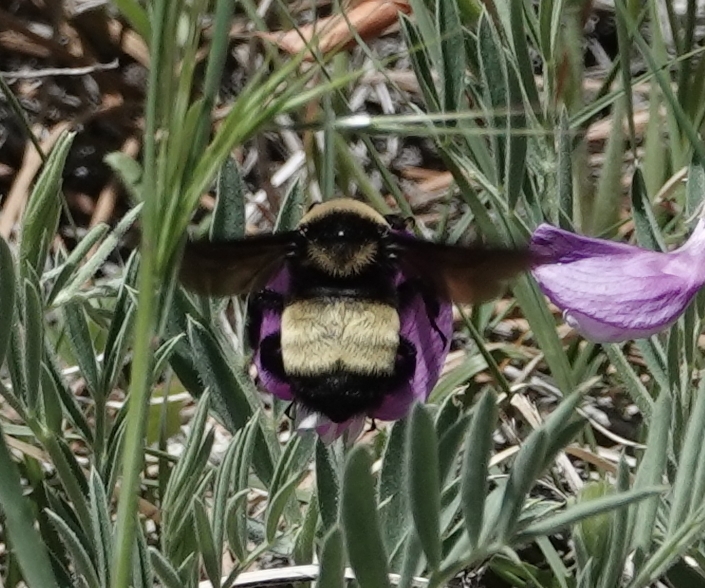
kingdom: Animalia
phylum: Arthropoda
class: Insecta
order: Hymenoptera
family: Apidae
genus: Bombus
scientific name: Bombus auricomus
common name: Black and gold bumble bee
